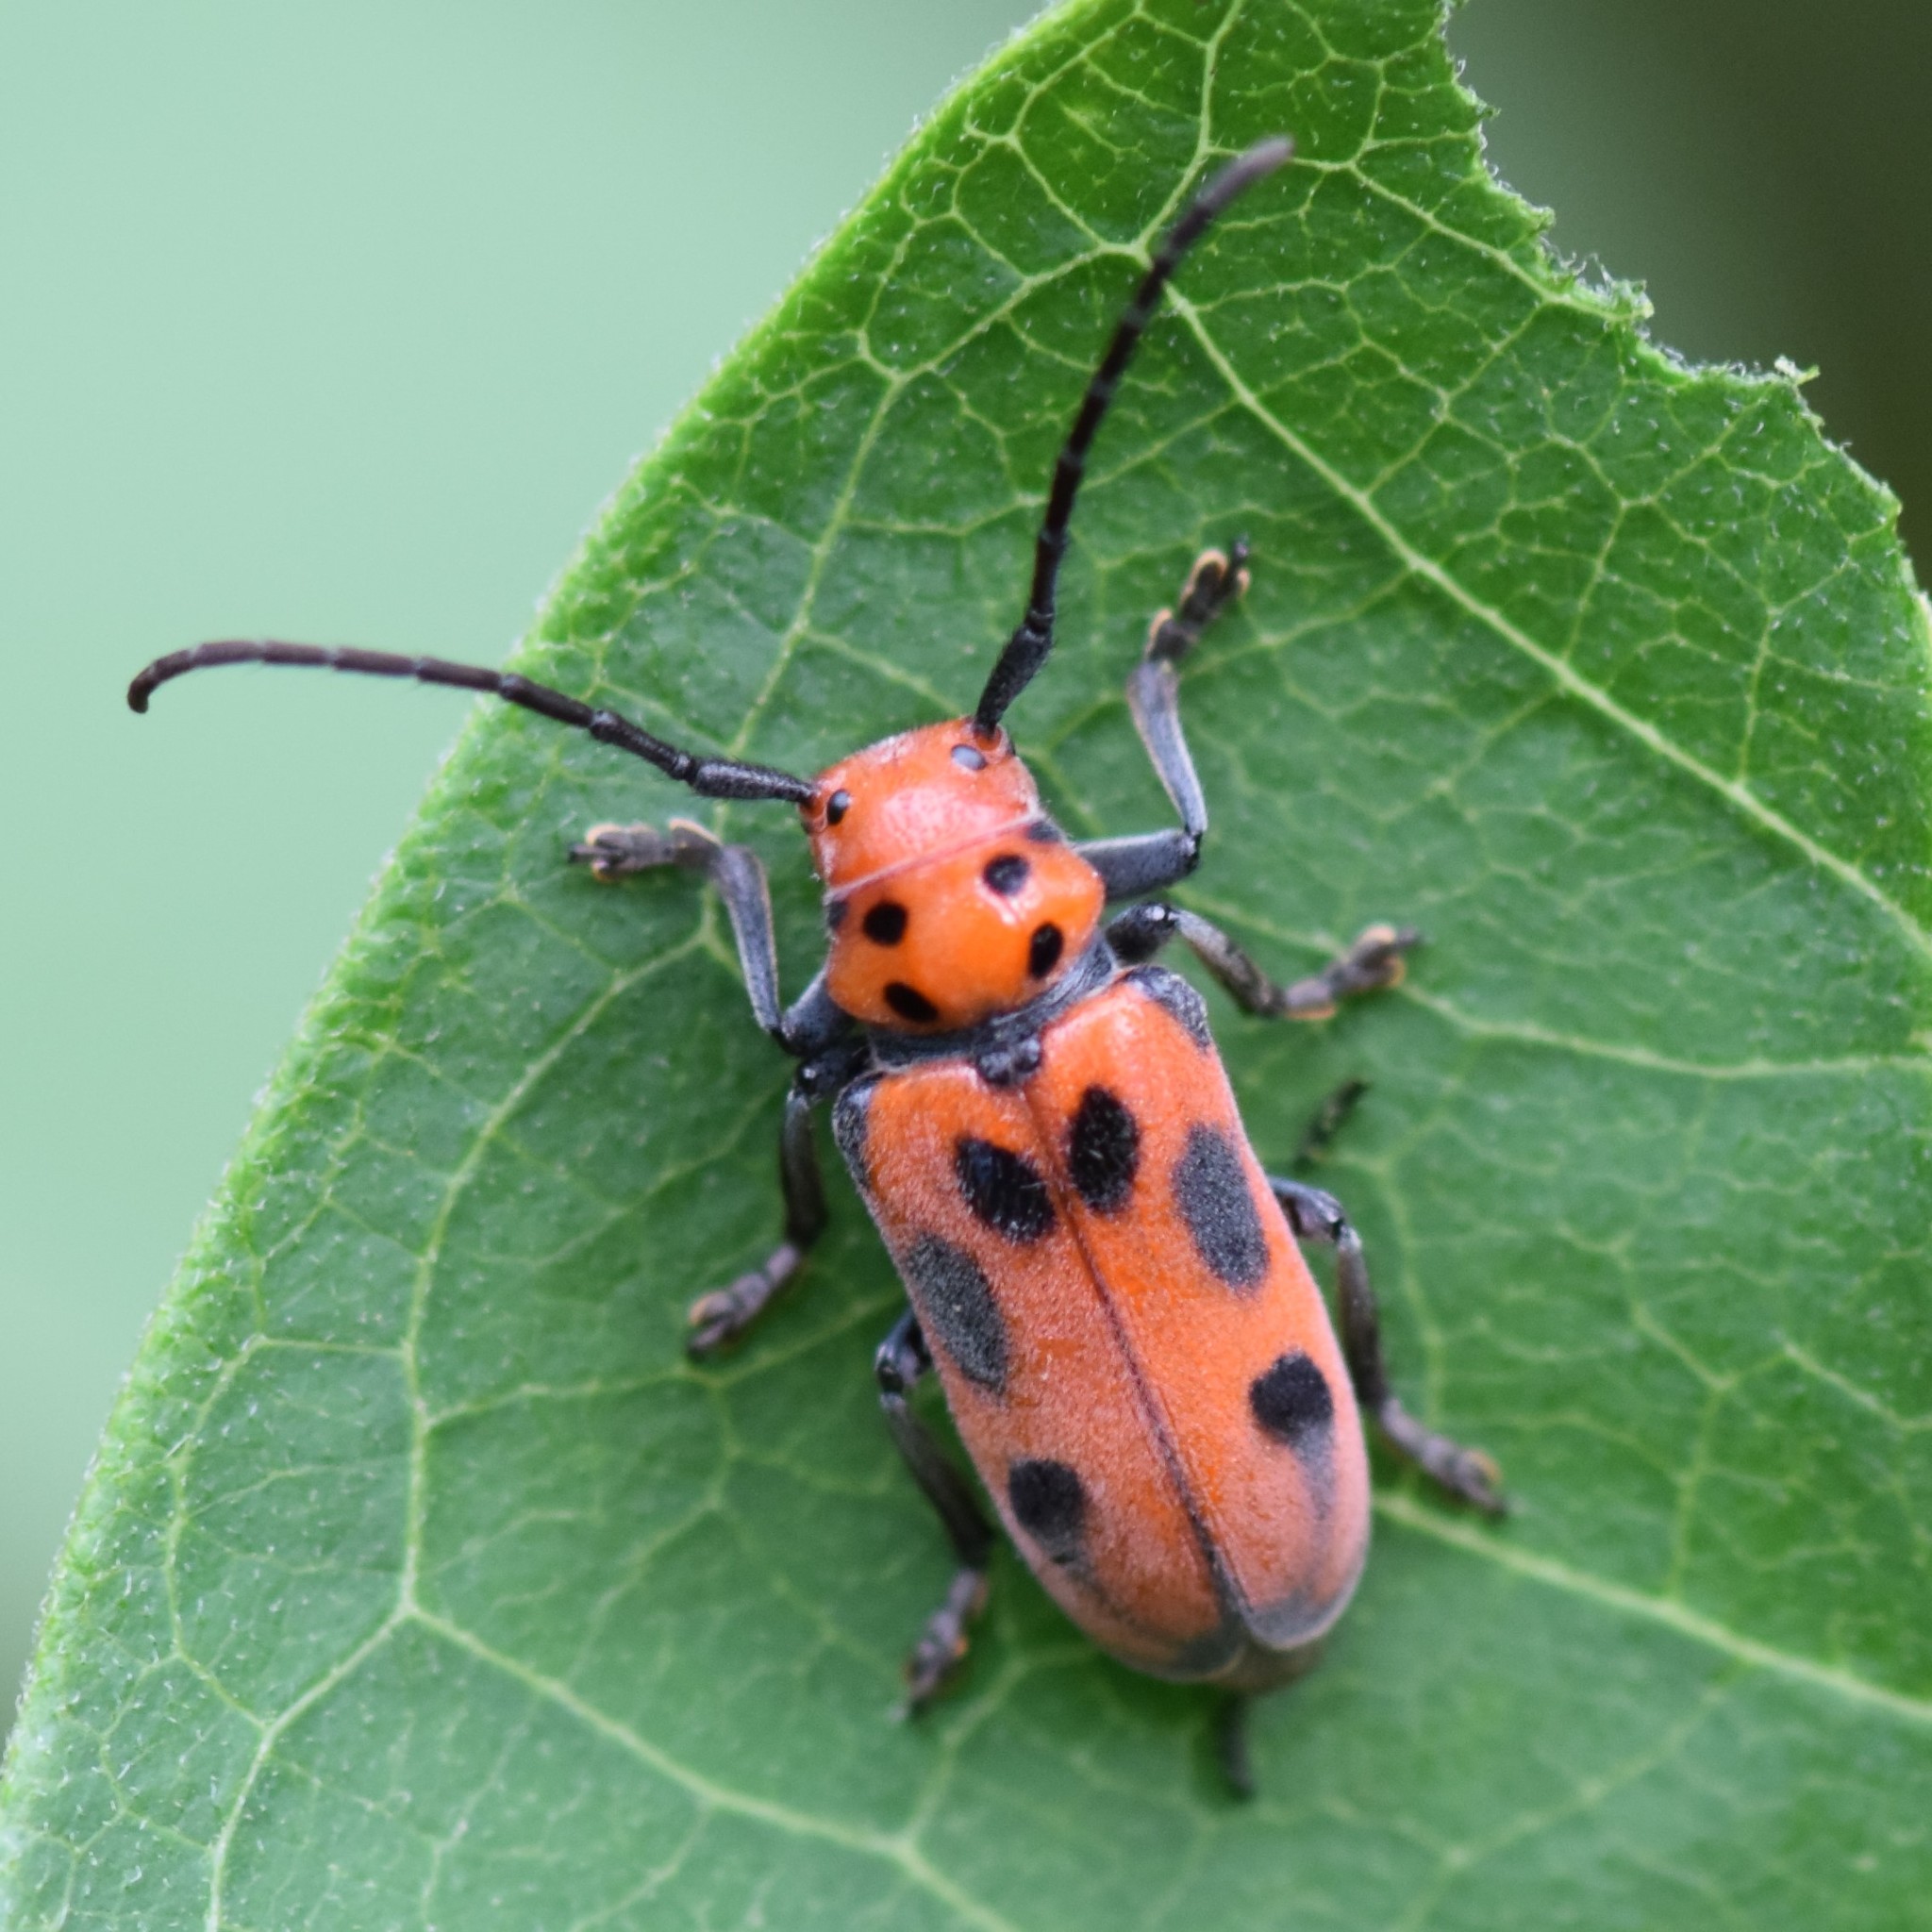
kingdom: Animalia
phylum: Arthropoda
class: Insecta
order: Coleoptera
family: Cerambycidae
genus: Tetraopes
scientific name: Tetraopes tetrophthalmus
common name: Red milkweed beetle
